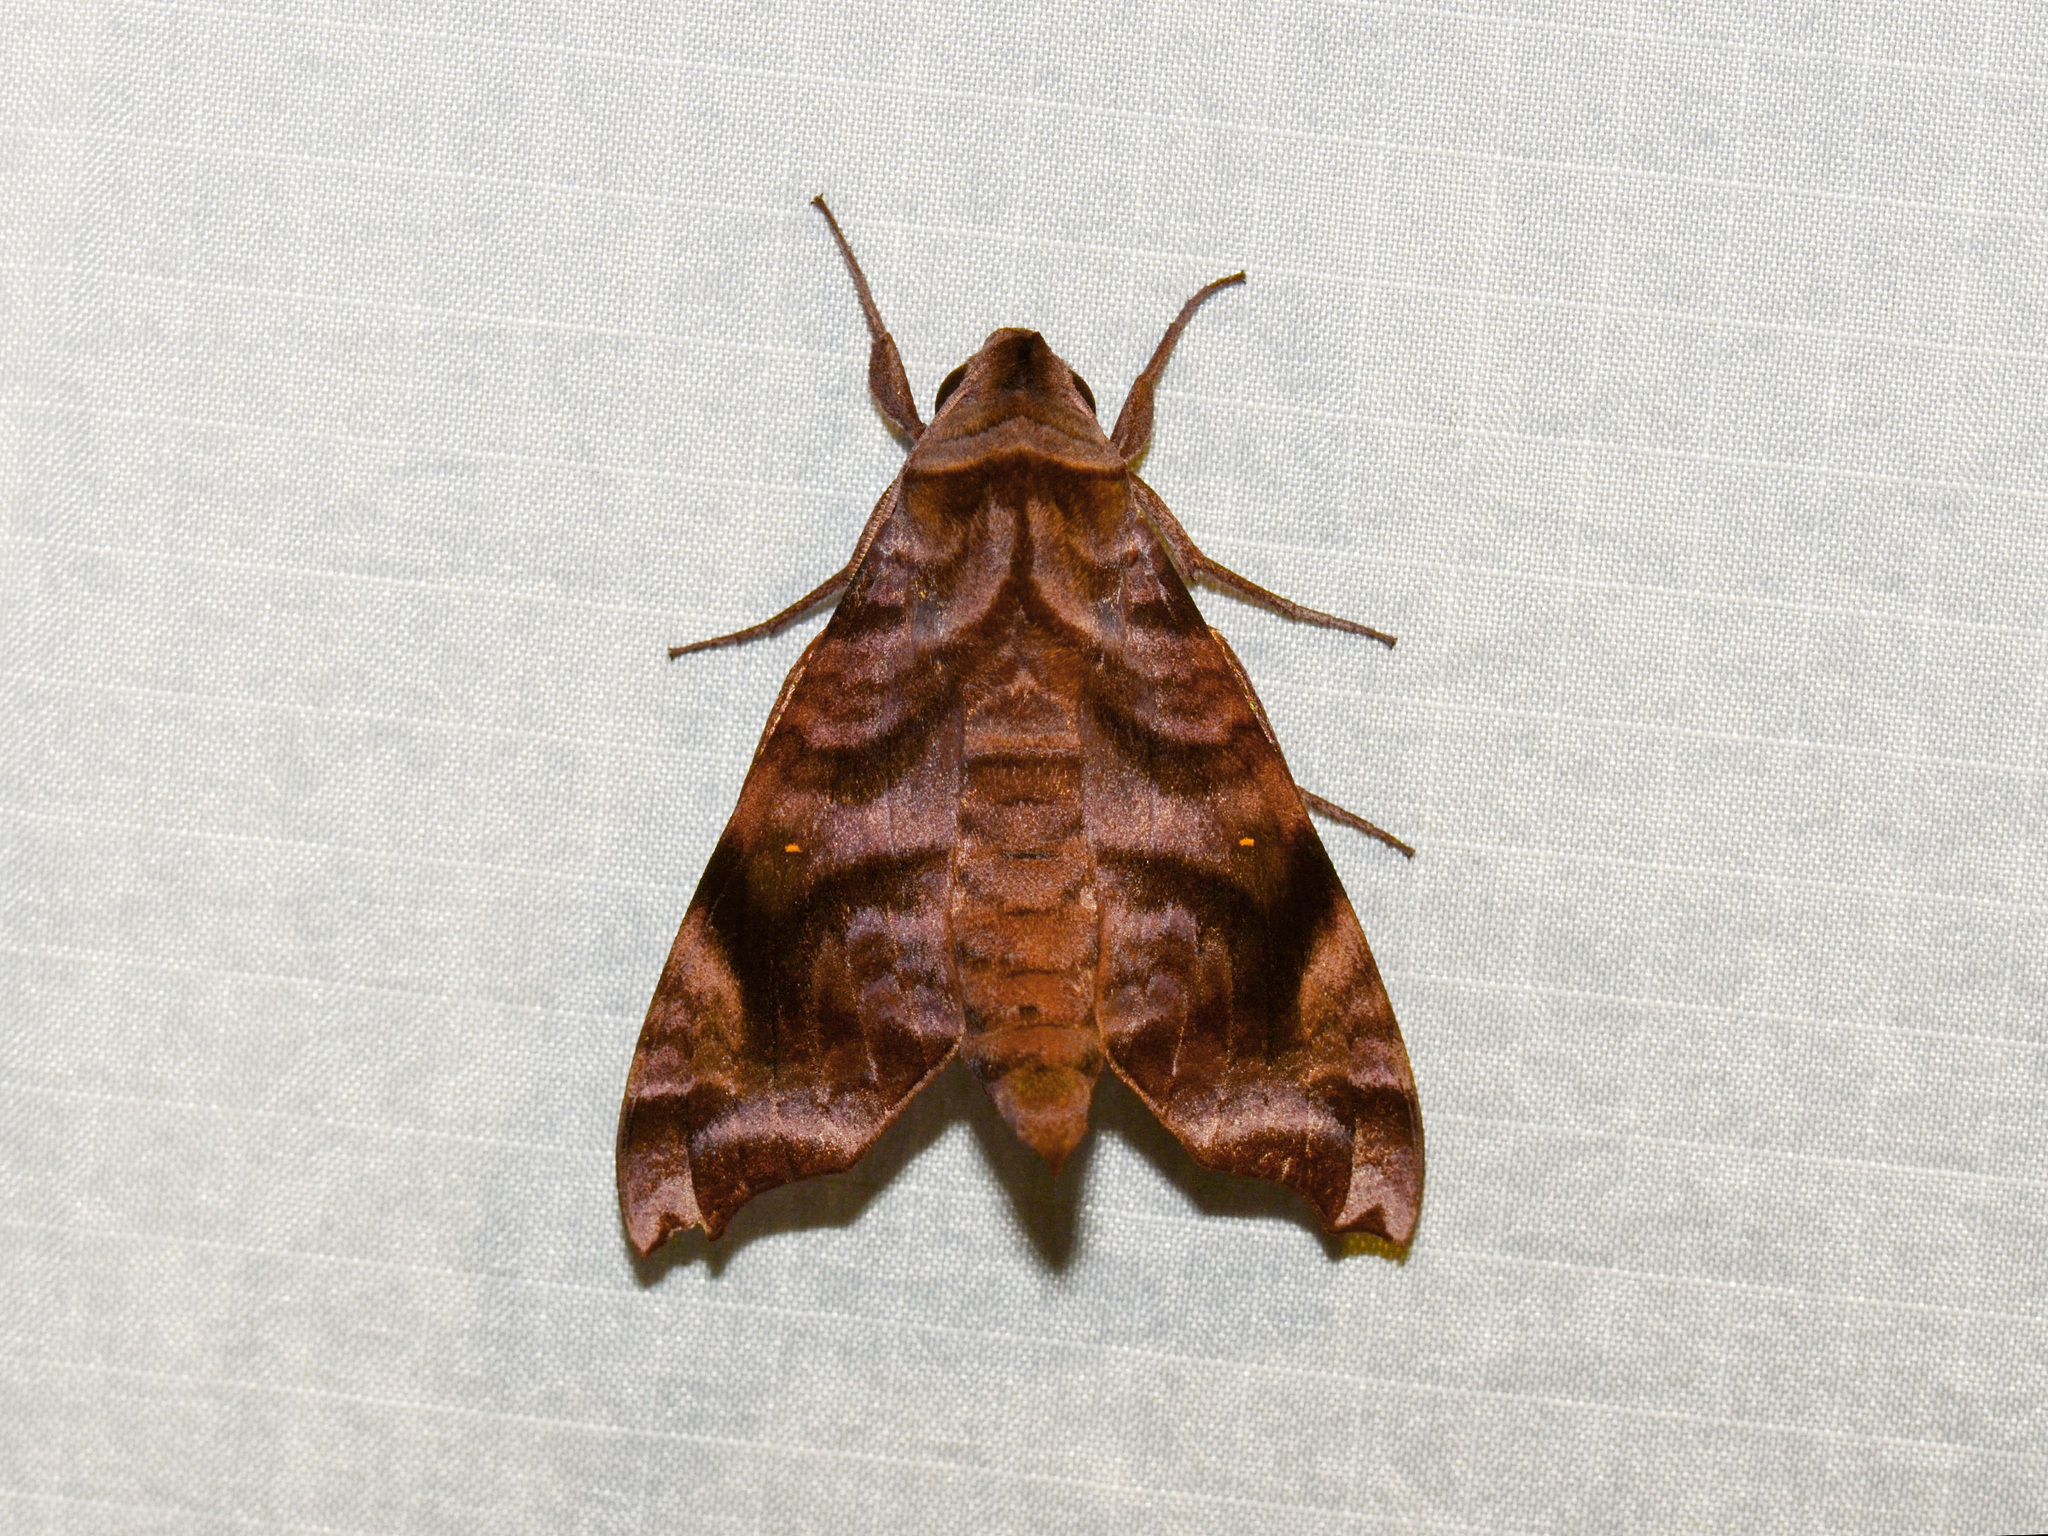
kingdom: Animalia
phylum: Arthropoda
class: Insecta
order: Lepidoptera
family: Sphingidae
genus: Acosmeryx
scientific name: Acosmeryx anceus
